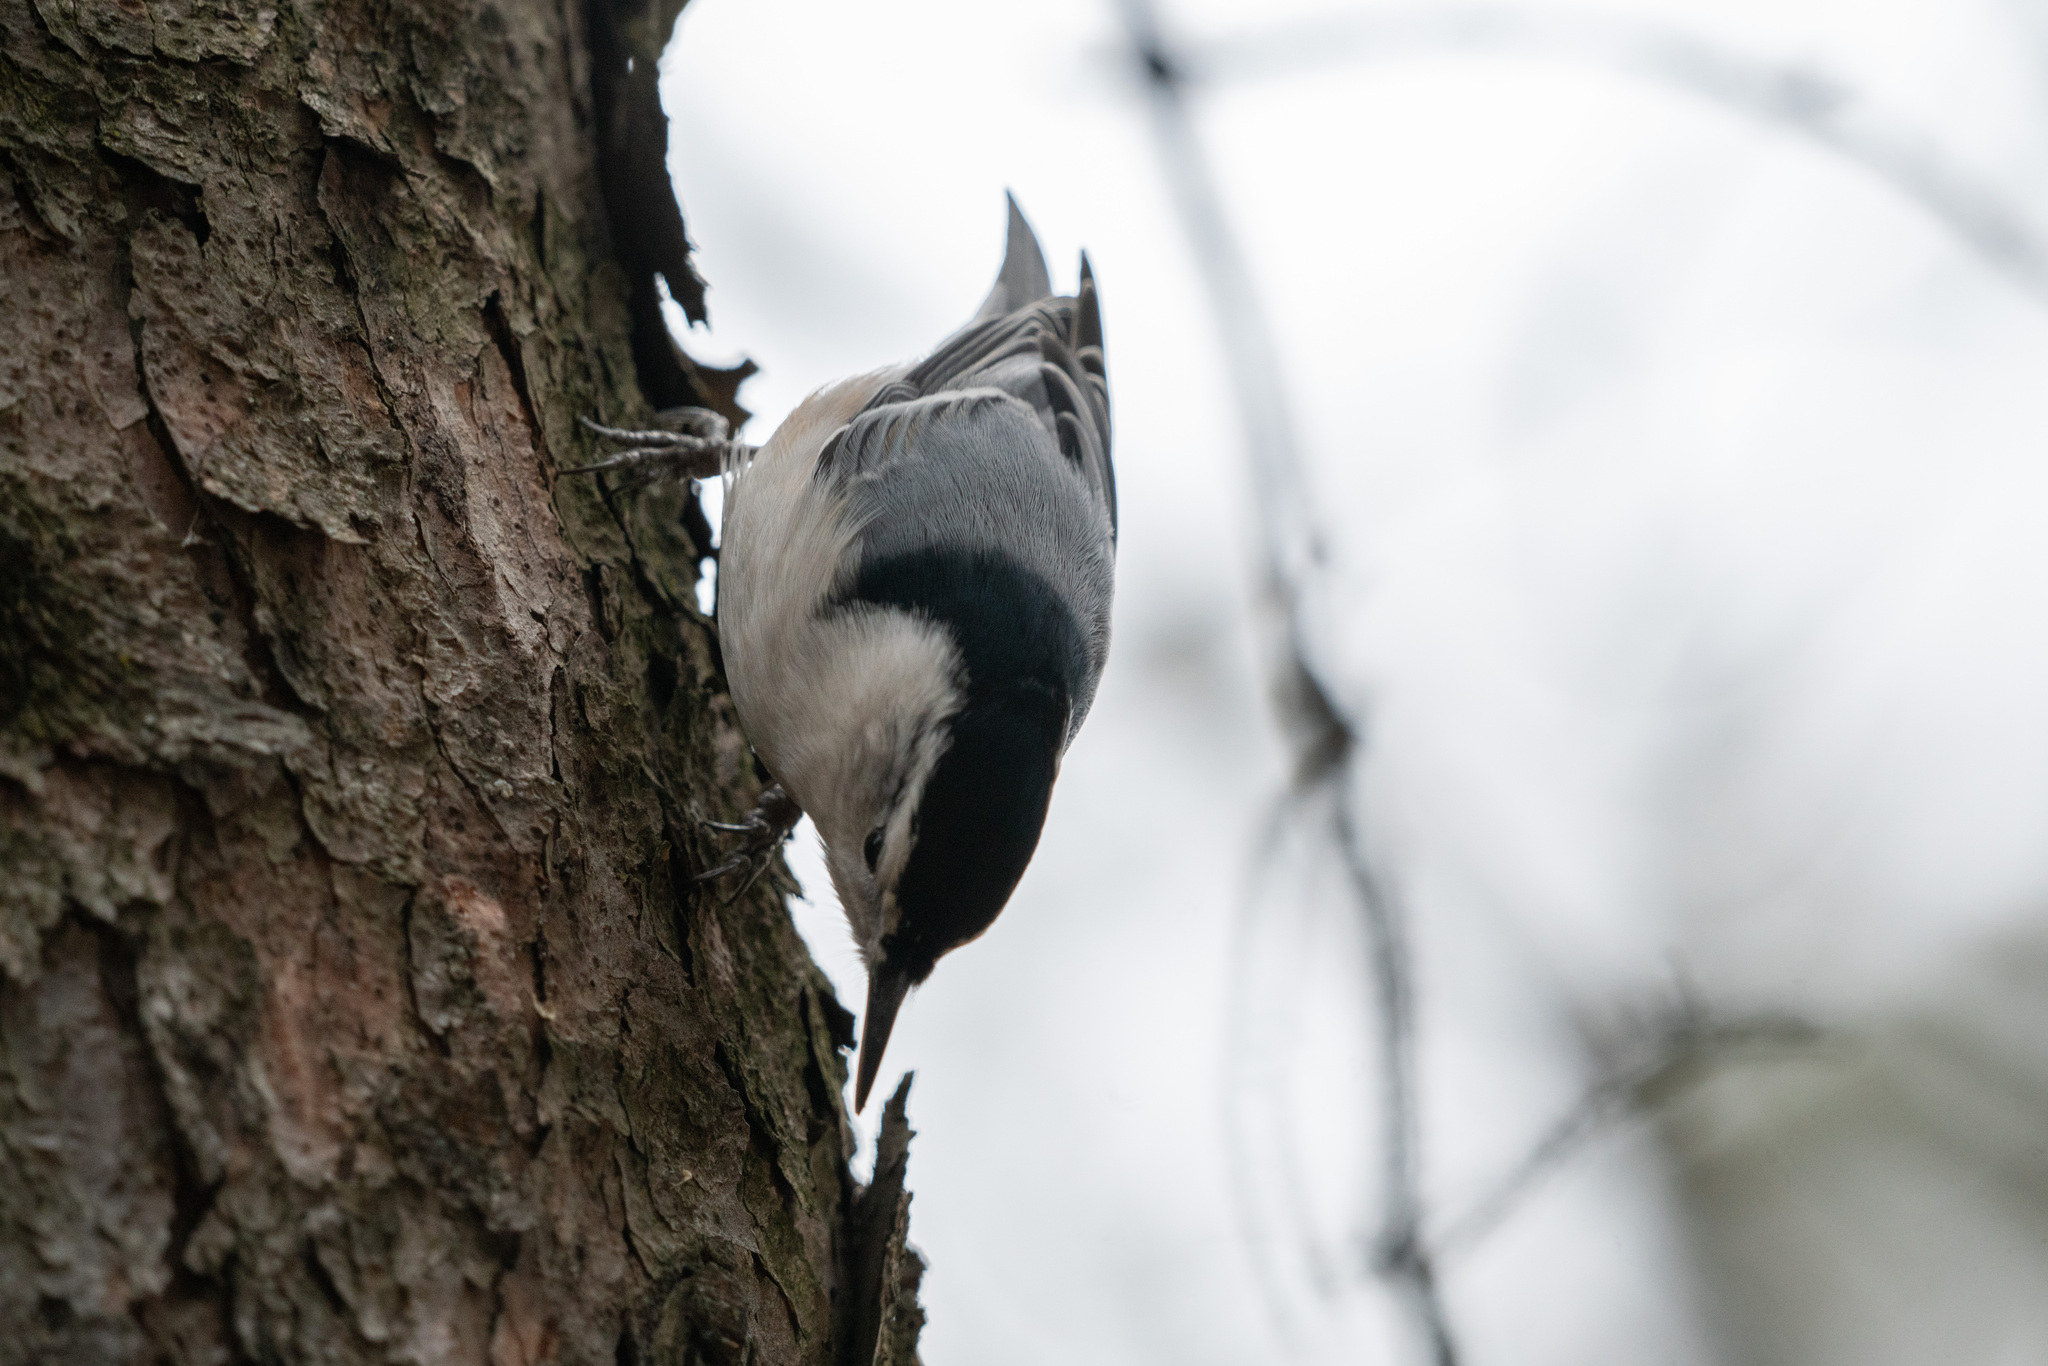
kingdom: Animalia
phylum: Chordata
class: Aves
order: Passeriformes
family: Sittidae
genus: Sitta
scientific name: Sitta carolinensis
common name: White-breasted nuthatch
